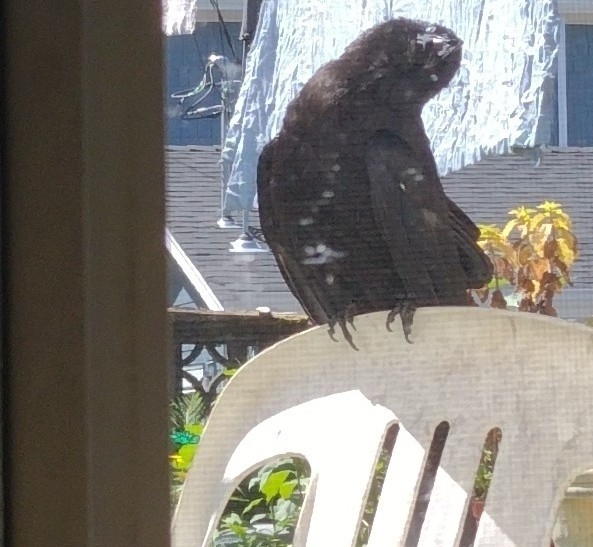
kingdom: Animalia
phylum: Chordata
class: Aves
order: Passeriformes
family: Corvidae
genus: Corvus
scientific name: Corvus brachyrhynchos
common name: American crow
